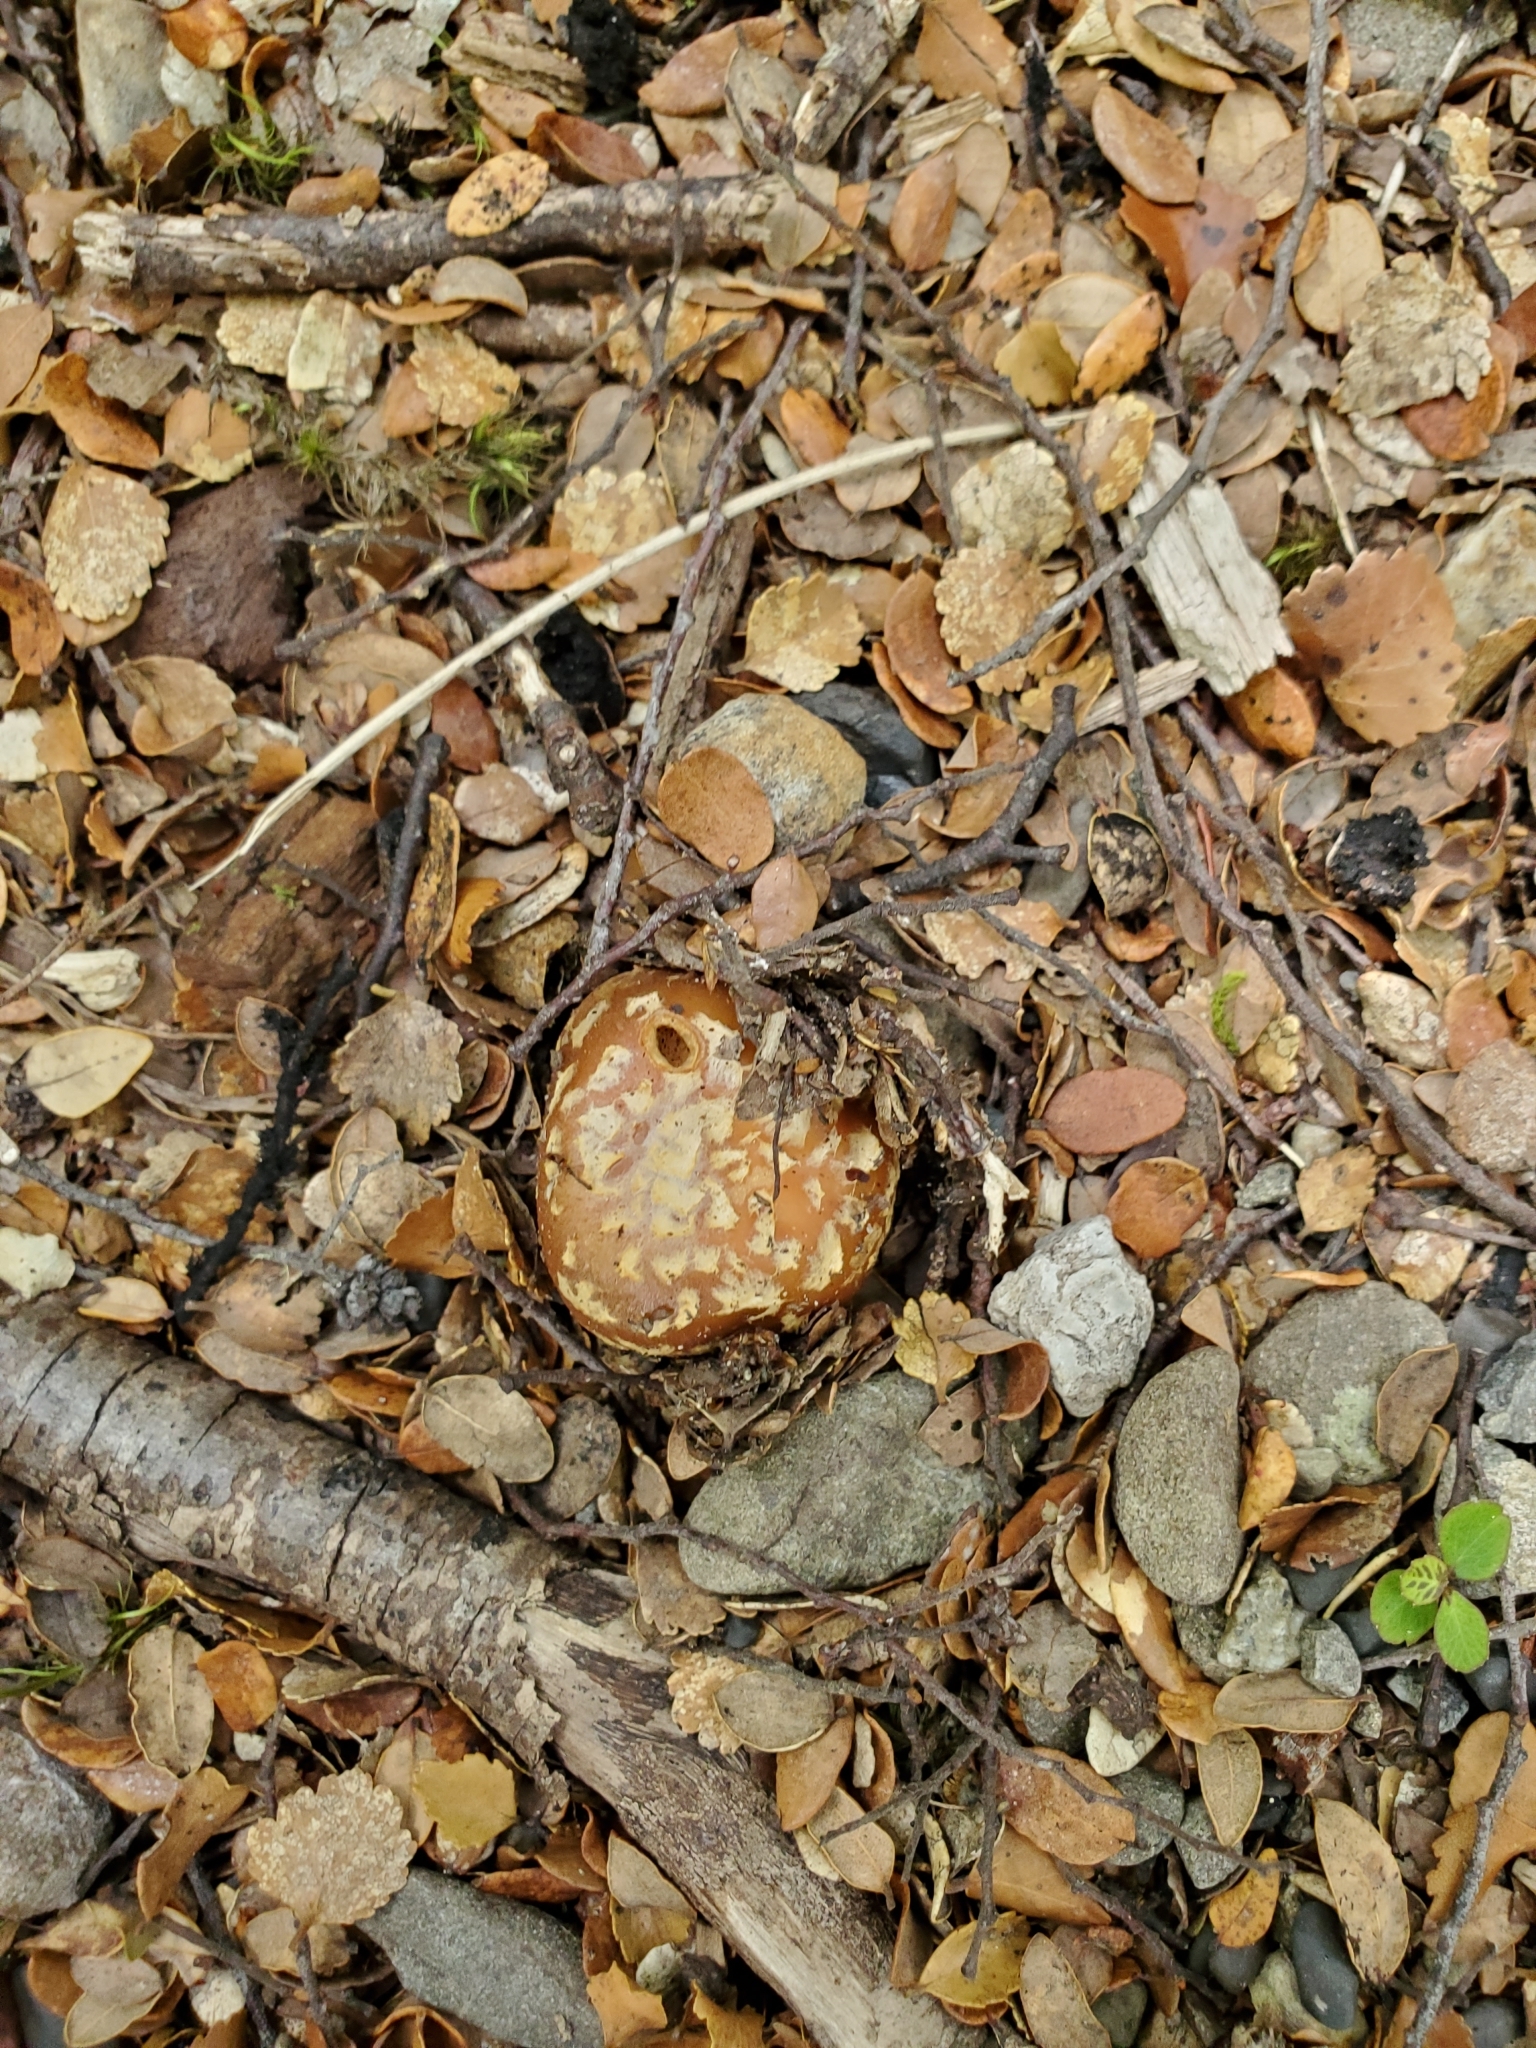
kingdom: Fungi
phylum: Basidiomycota
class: Agaricomycetes
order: Agaricales
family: Cortinariaceae
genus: Cortinarius
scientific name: Cortinarius epiphaeus
